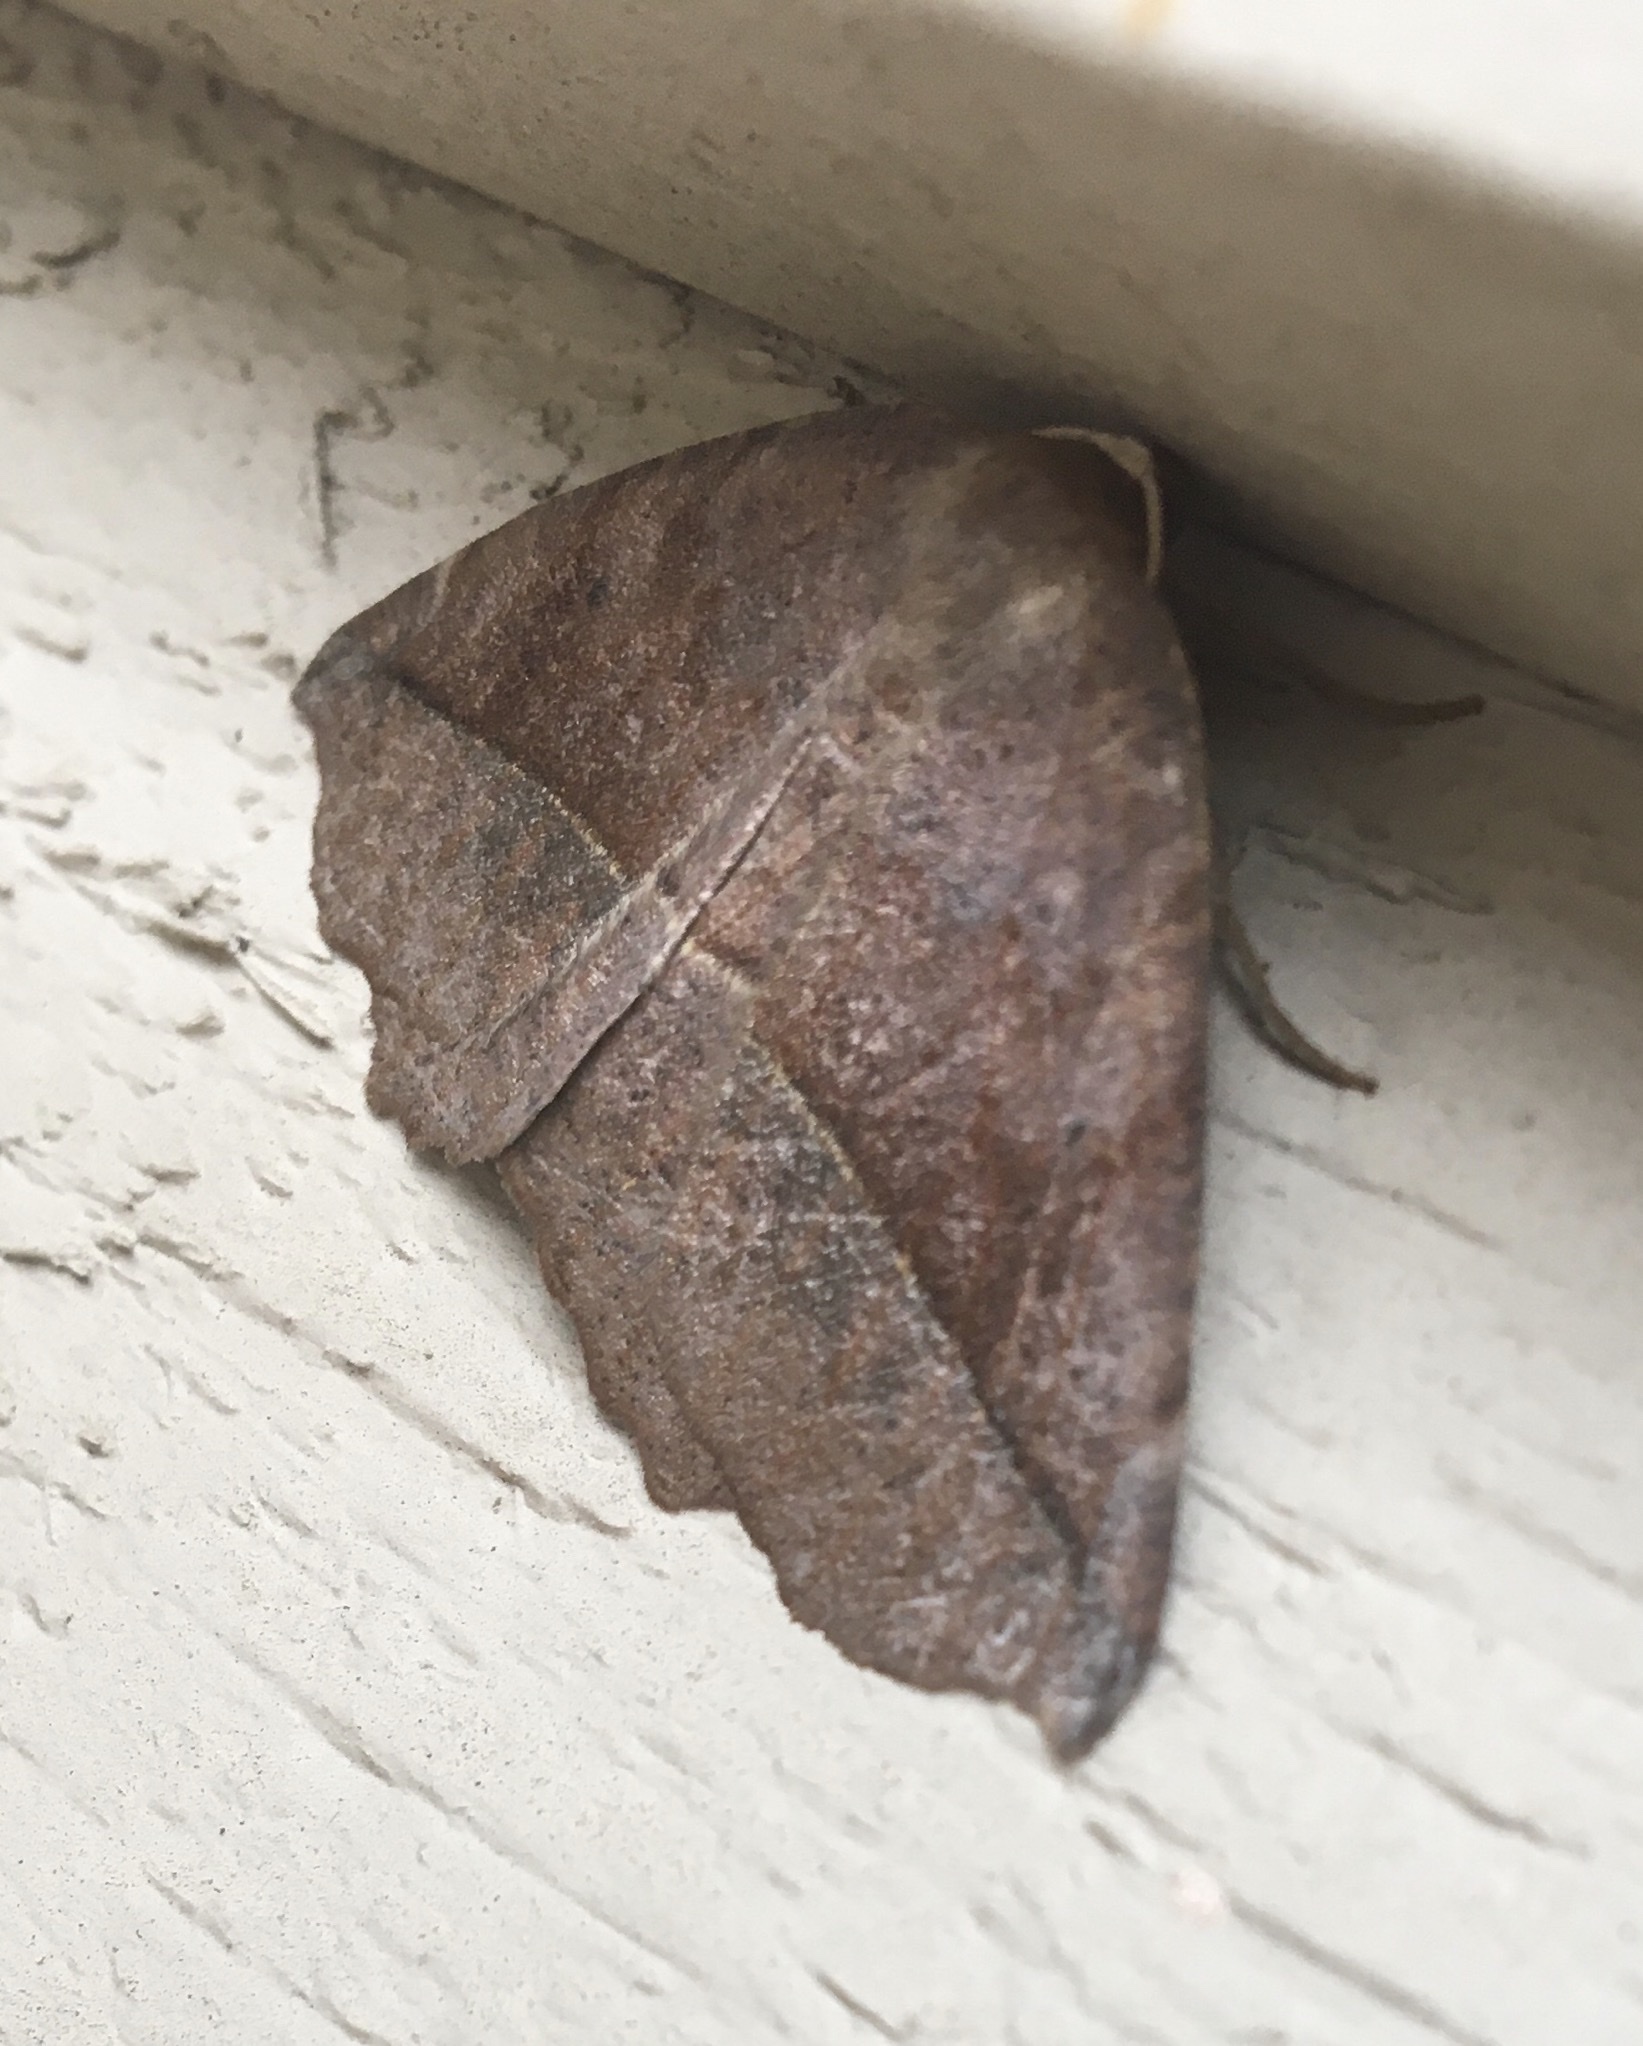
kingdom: Animalia
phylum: Arthropoda
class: Insecta
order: Lepidoptera
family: Geometridae
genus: Eutrapela
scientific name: Eutrapela clemataria
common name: Curved-toothed geometer
